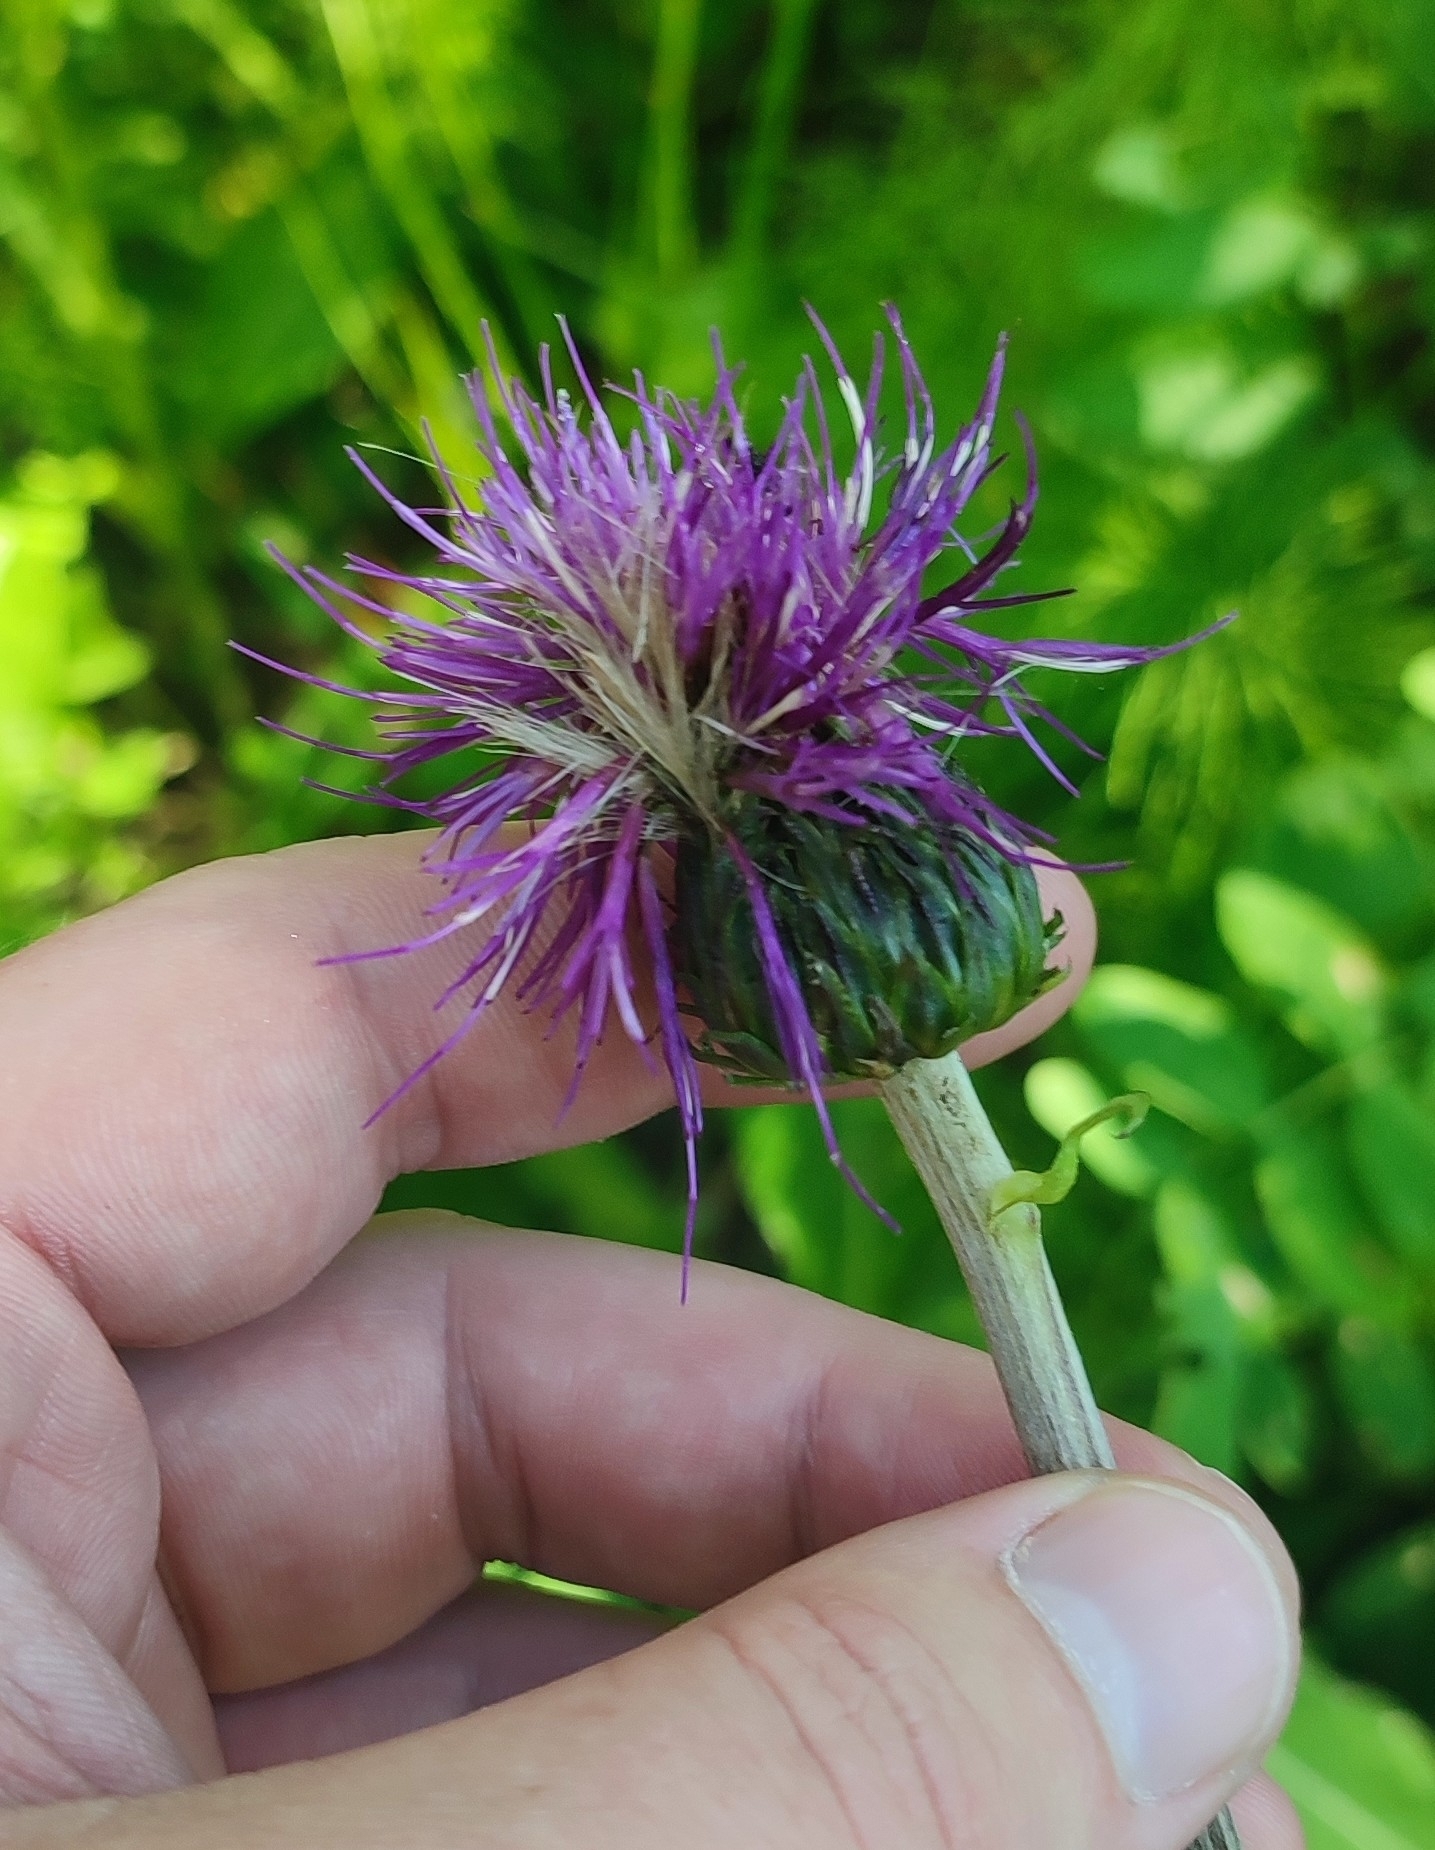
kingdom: Plantae
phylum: Tracheophyta
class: Magnoliopsida
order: Asterales
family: Asteraceae
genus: Cirsium
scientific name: Cirsium heterophyllum
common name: Melancholy thistle
